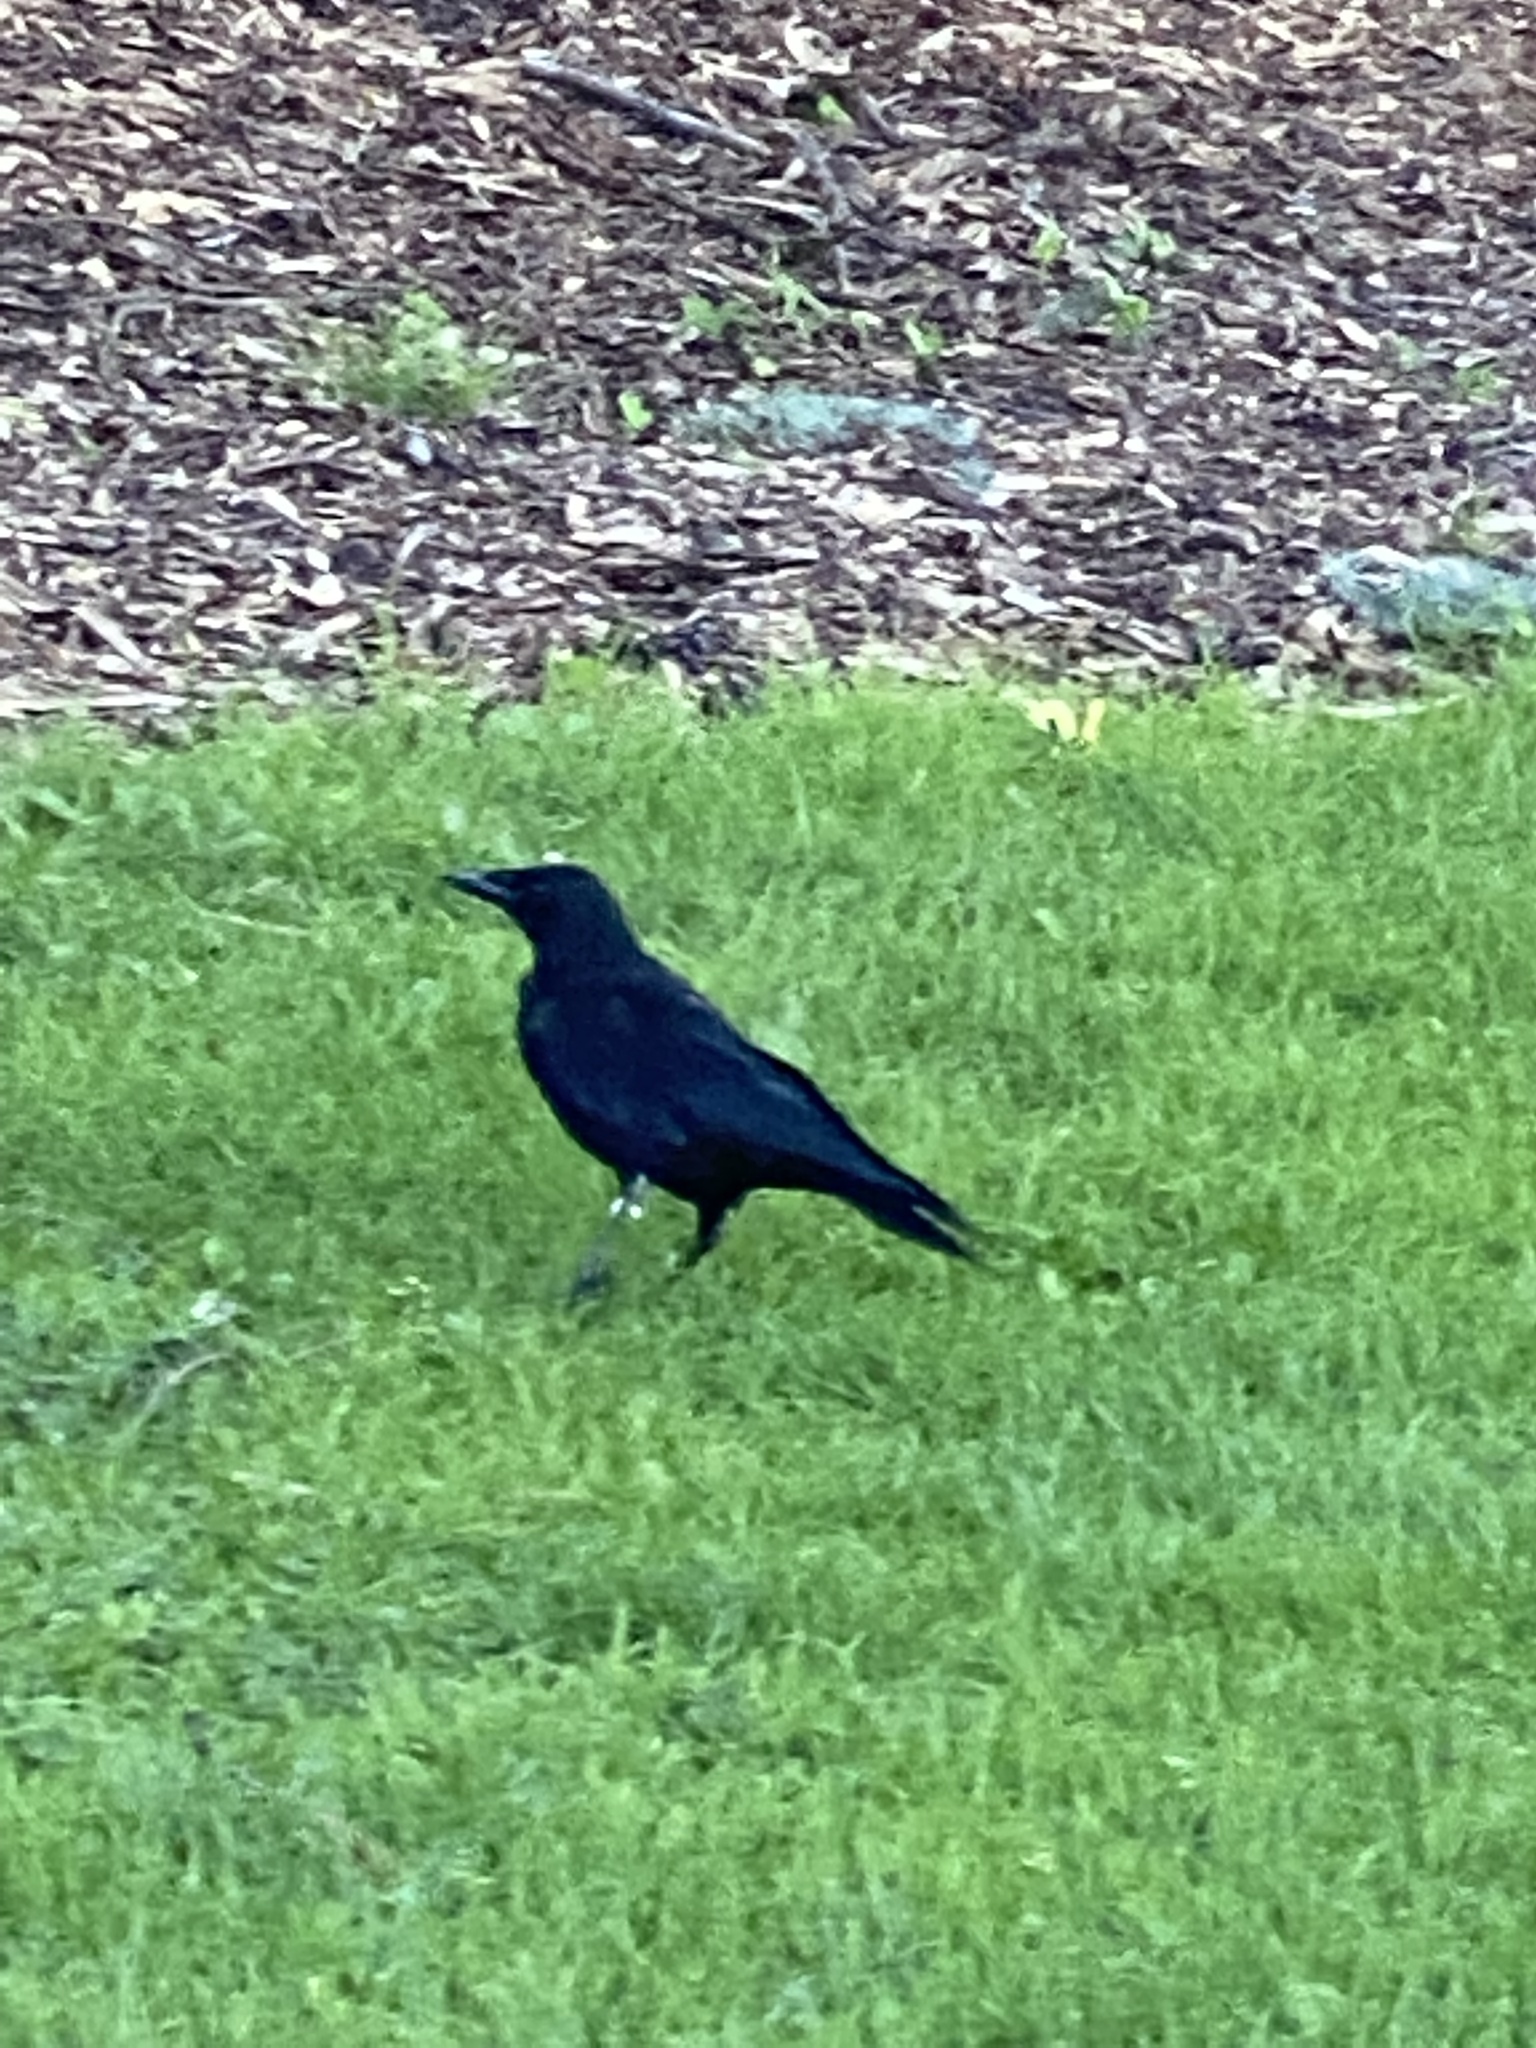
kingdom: Animalia
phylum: Chordata
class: Aves
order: Passeriformes
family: Corvidae
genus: Corvus
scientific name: Corvus brachyrhynchos
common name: American crow
